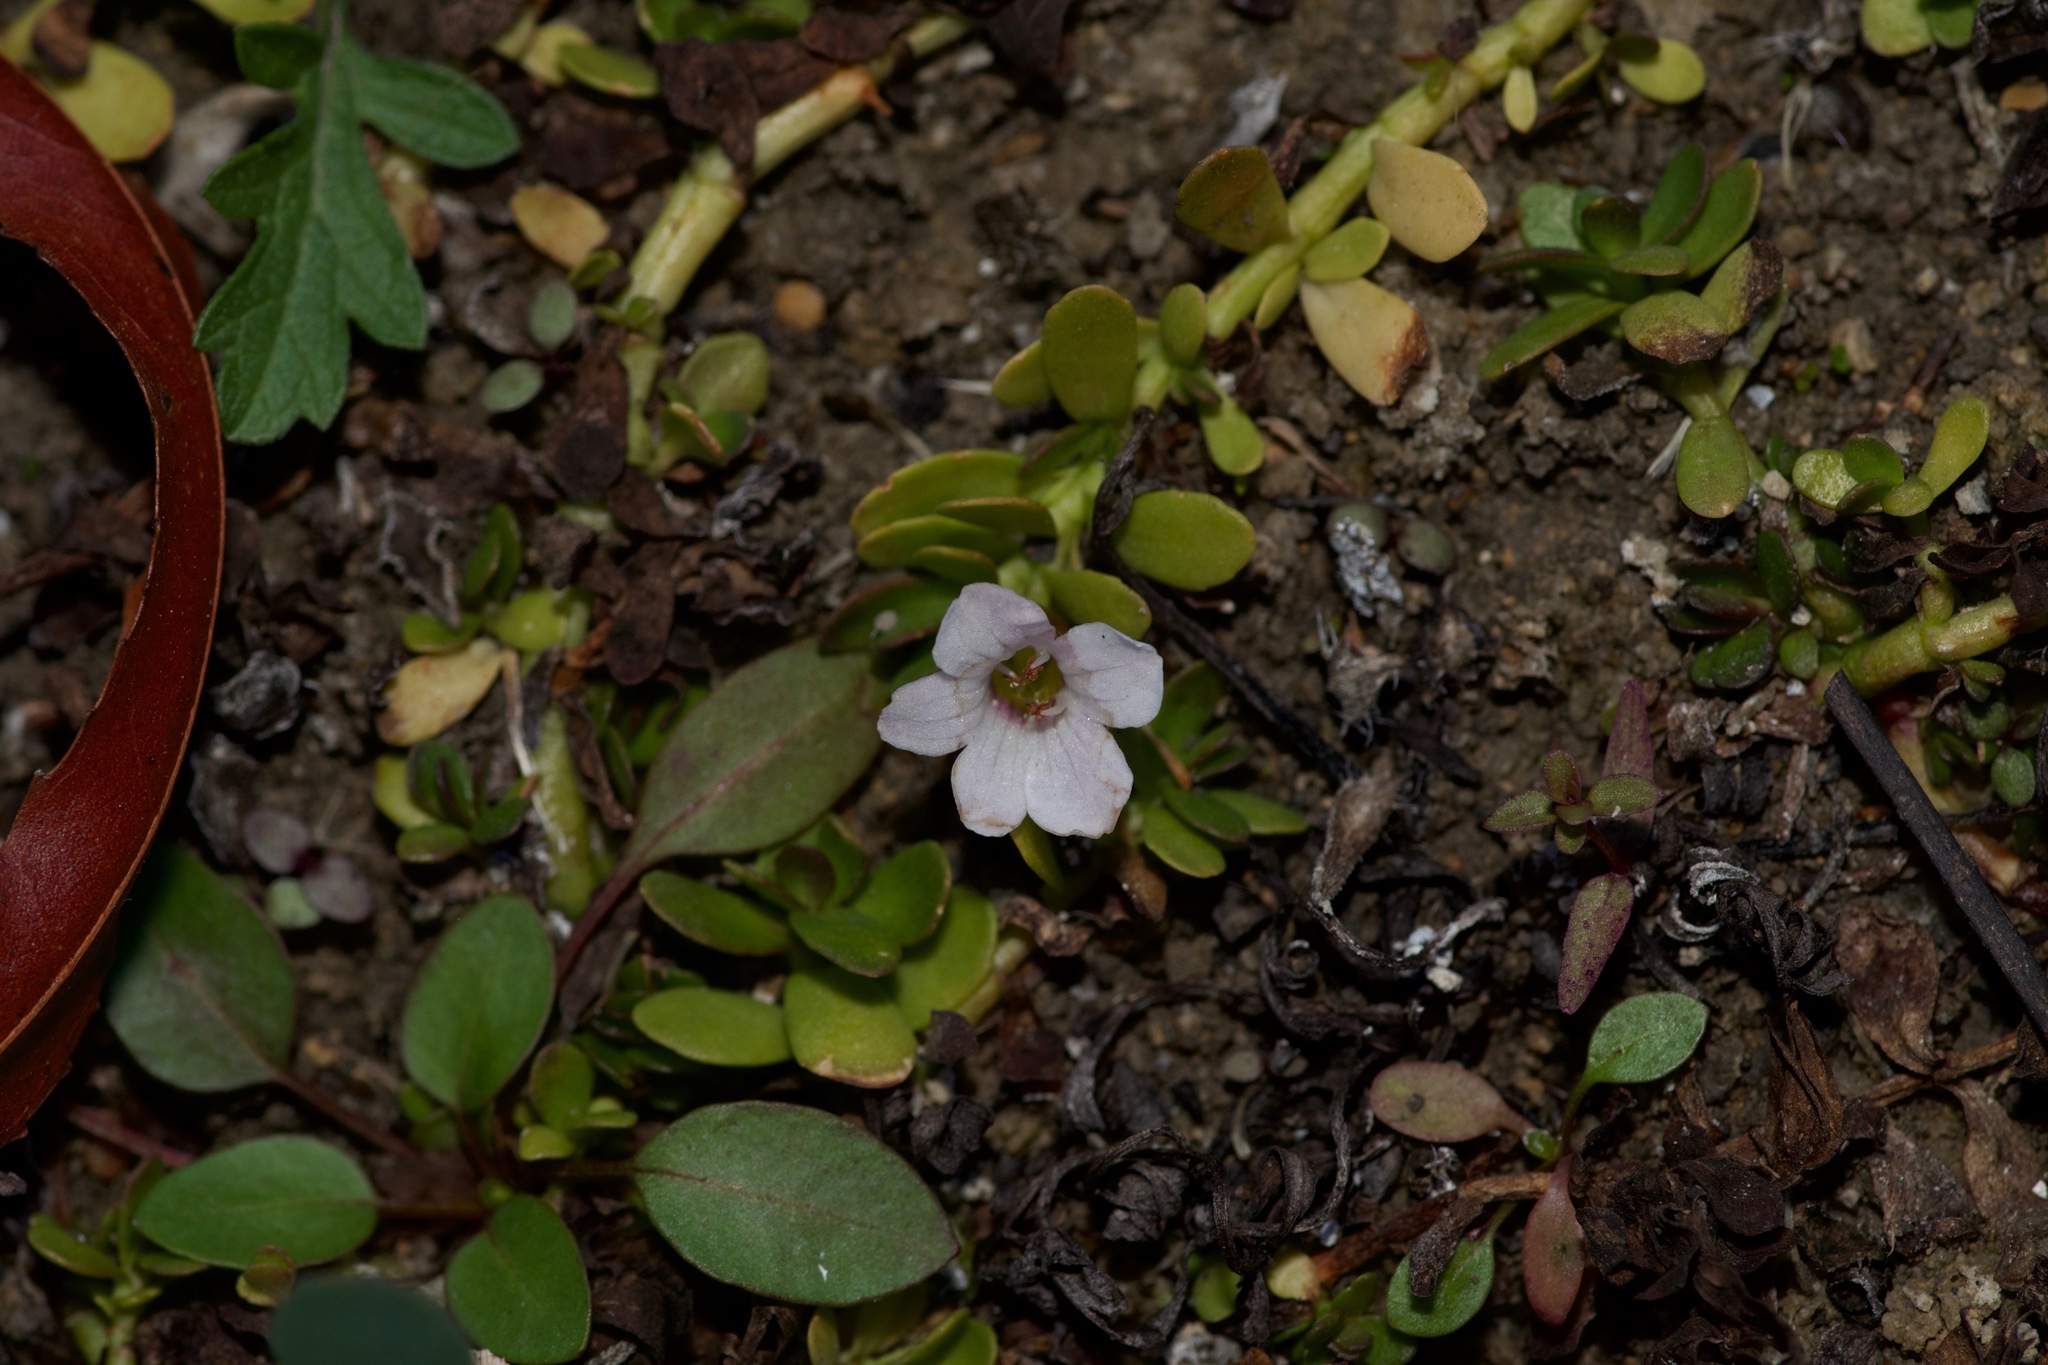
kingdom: Plantae
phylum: Tracheophyta
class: Magnoliopsida
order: Lamiales
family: Plantaginaceae
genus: Bacopa
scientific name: Bacopa monnieri
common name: Indian-pennywort
